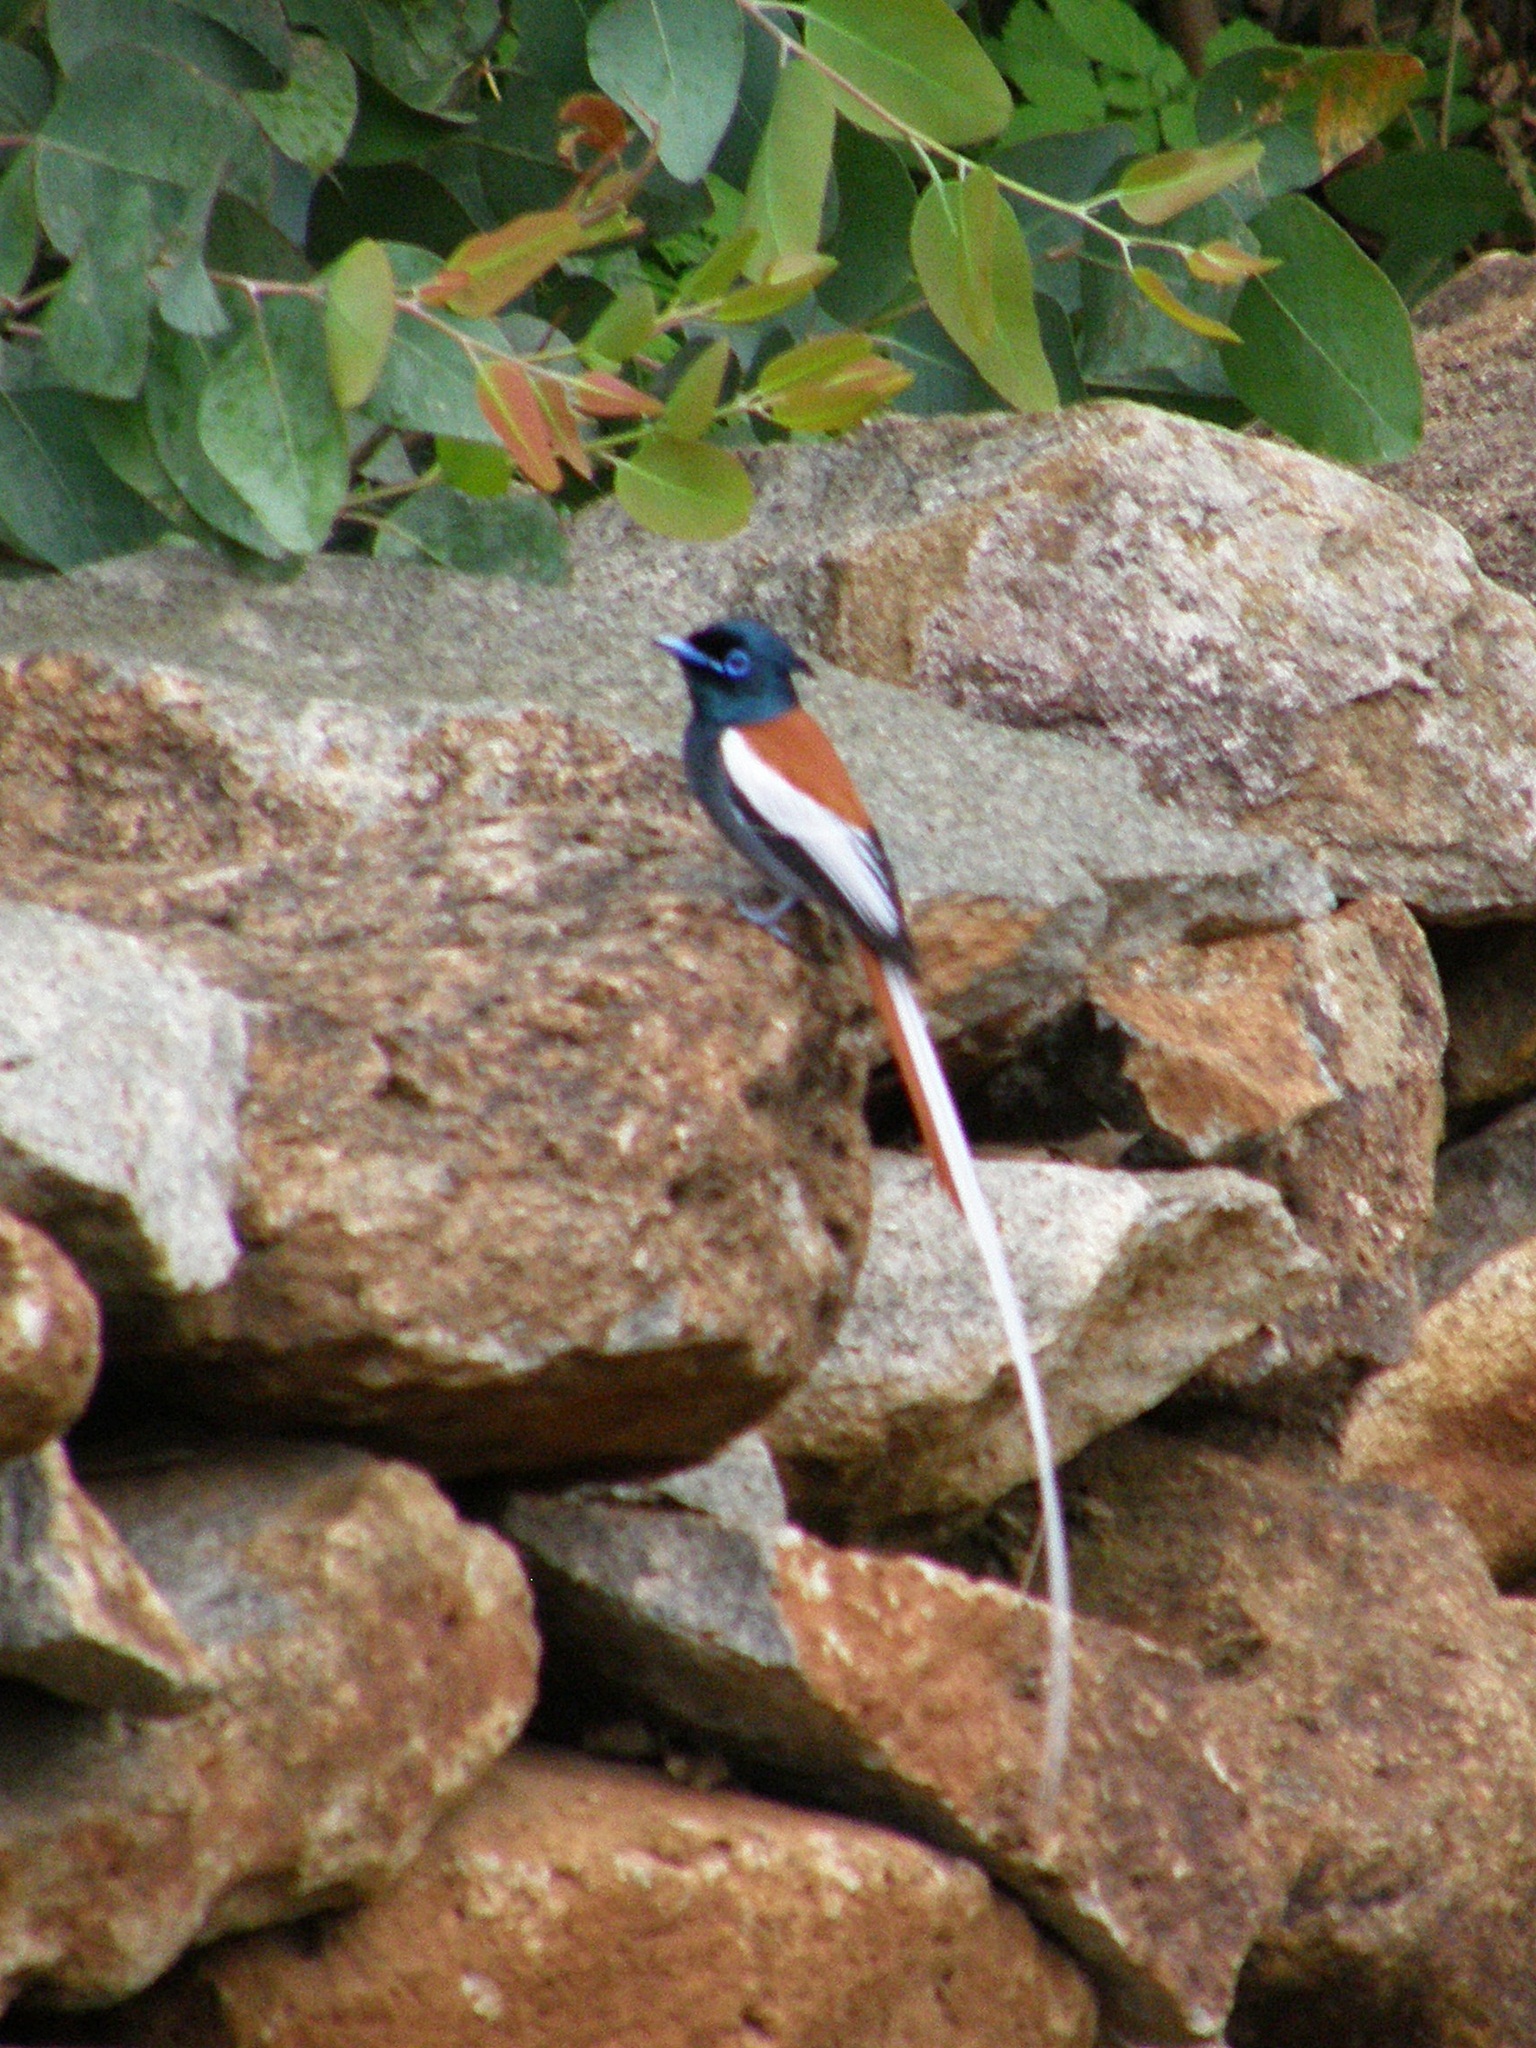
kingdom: Animalia
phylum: Chordata
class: Aves
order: Passeriformes
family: Monarchidae
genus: Terpsiphone
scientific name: Terpsiphone viridis
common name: African paradise flycatcher
